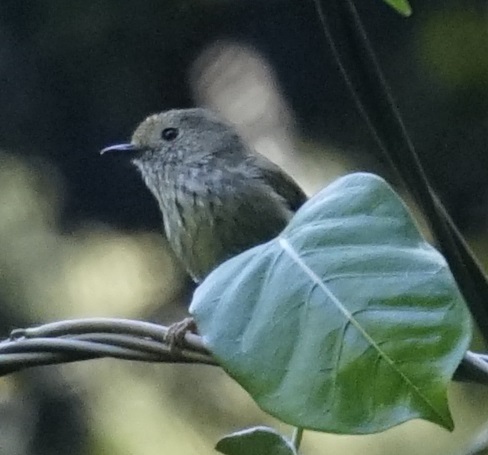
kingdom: Animalia
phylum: Chordata
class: Aves
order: Passeriformes
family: Acanthizidae
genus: Acanthiza
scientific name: Acanthiza pusilla
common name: Brown thornbill
